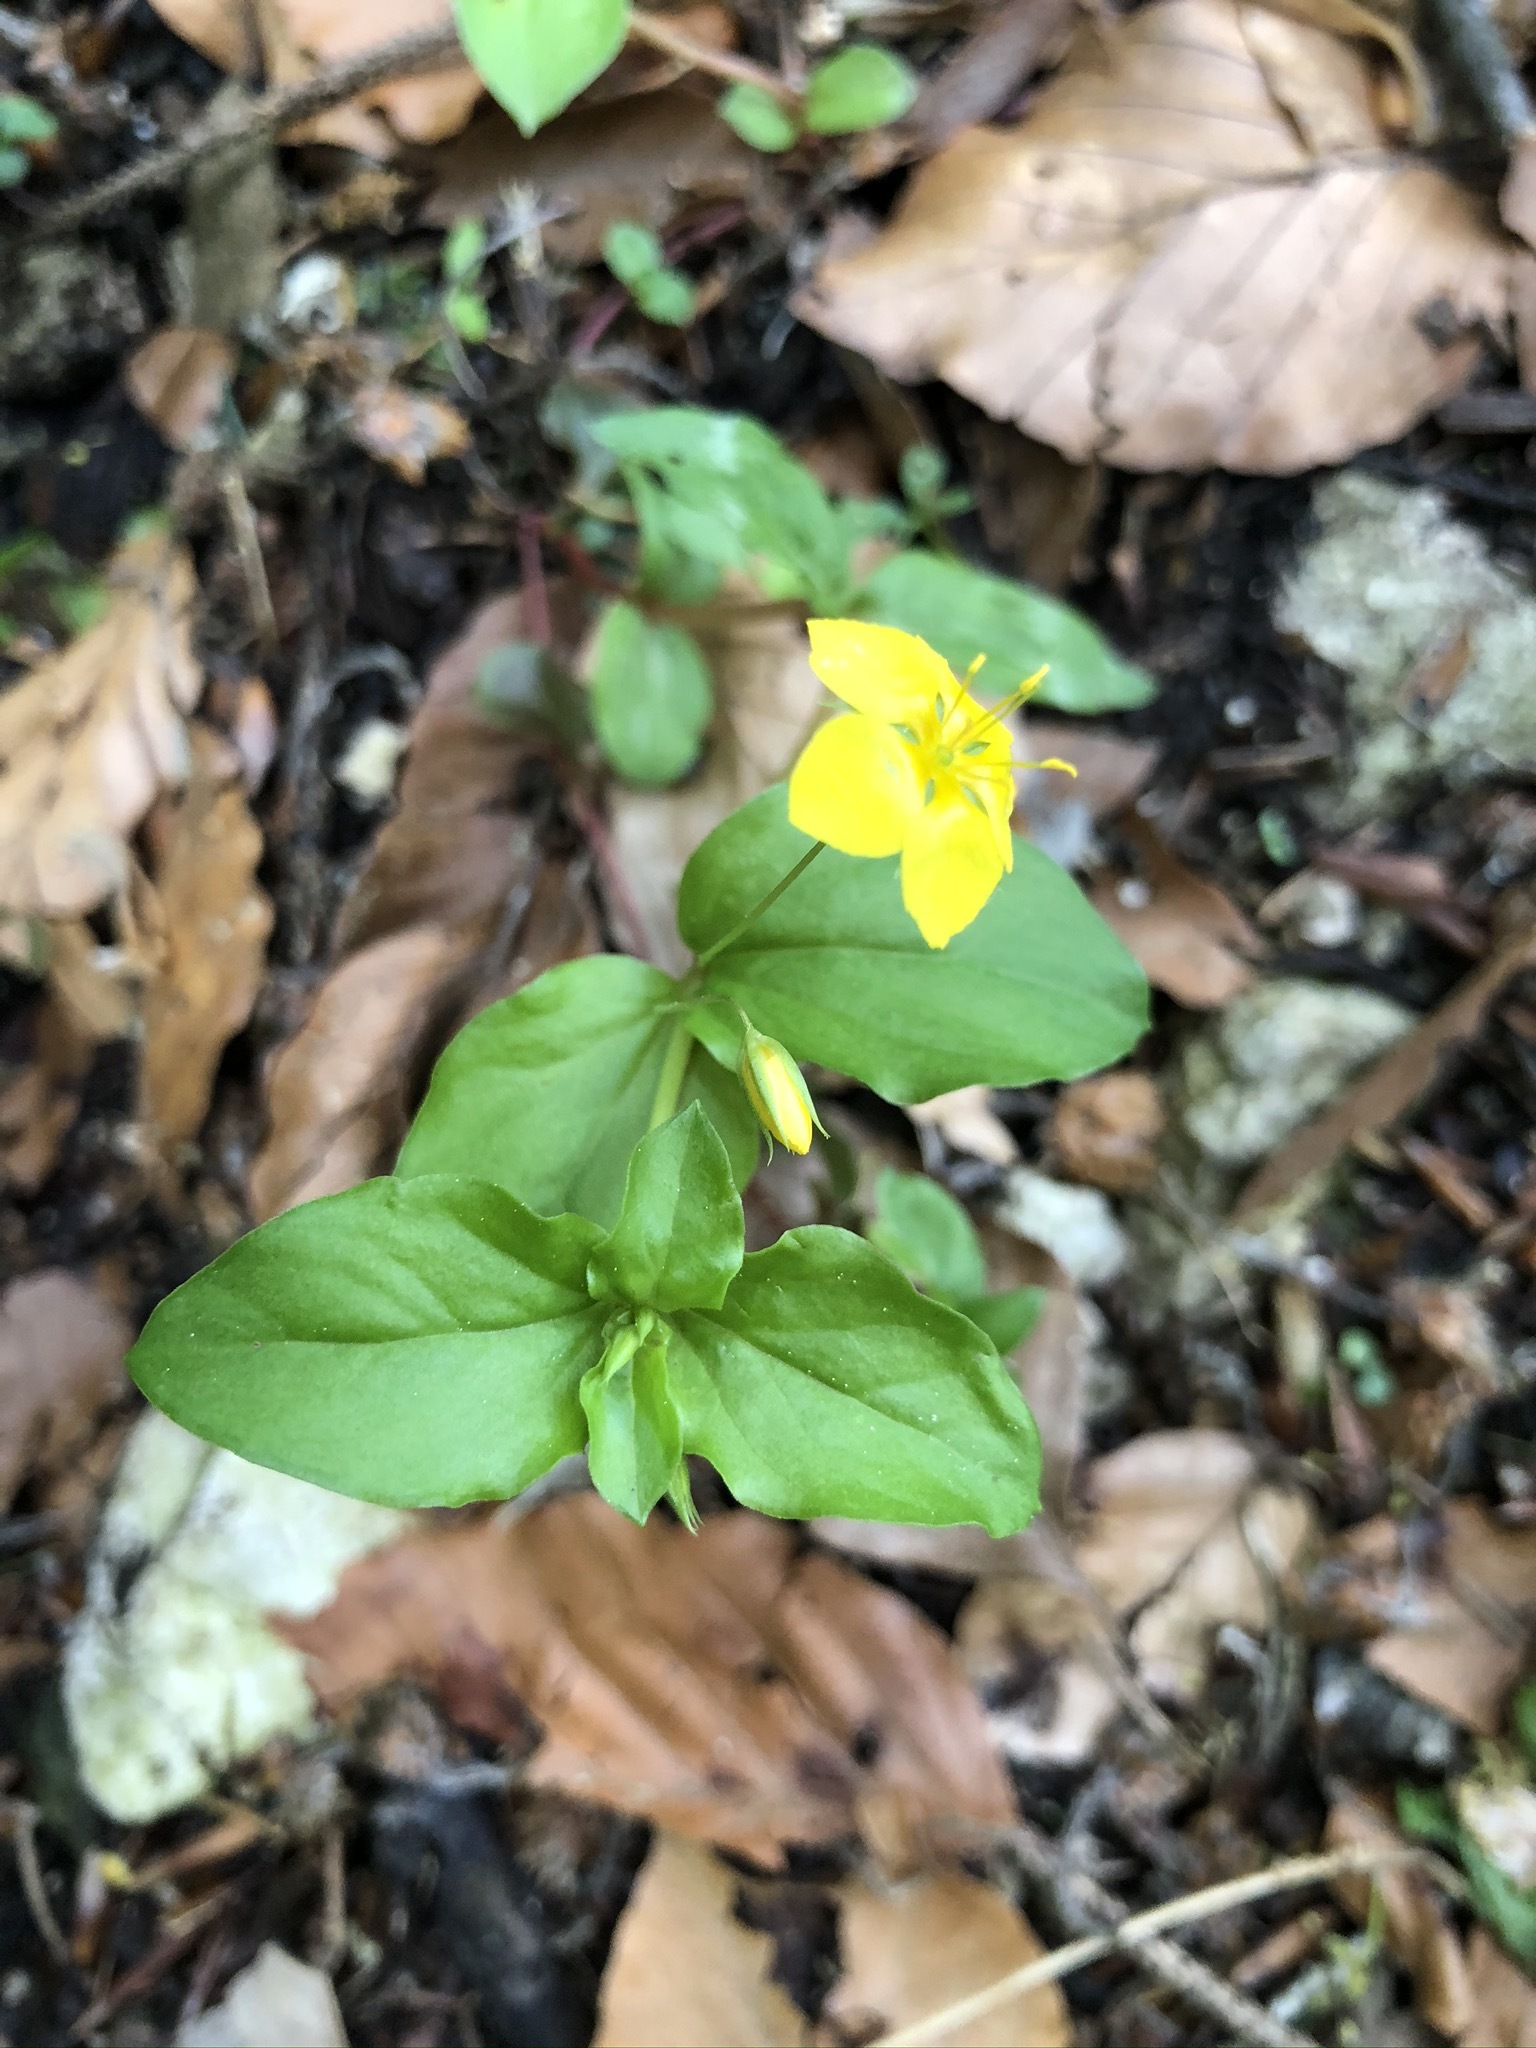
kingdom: Plantae
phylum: Tracheophyta
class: Magnoliopsida
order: Ericales
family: Primulaceae
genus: Lysimachia
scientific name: Lysimachia nemorum
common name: Yellow pimpernel
